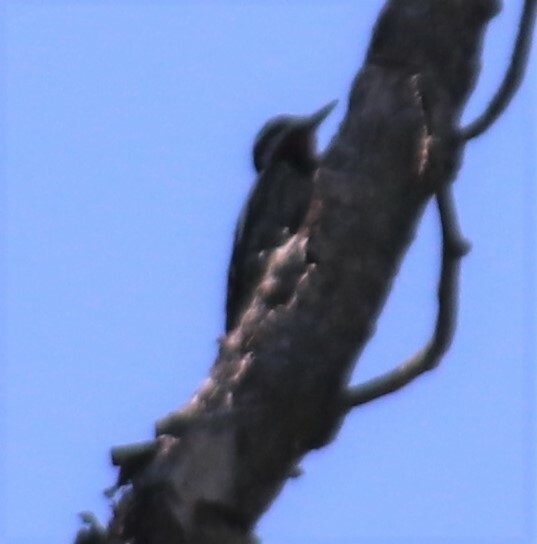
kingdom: Animalia
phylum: Chordata
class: Aves
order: Piciformes
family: Picidae
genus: Sphyrapicus
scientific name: Sphyrapicus varius
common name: Yellow-bellied sapsucker
